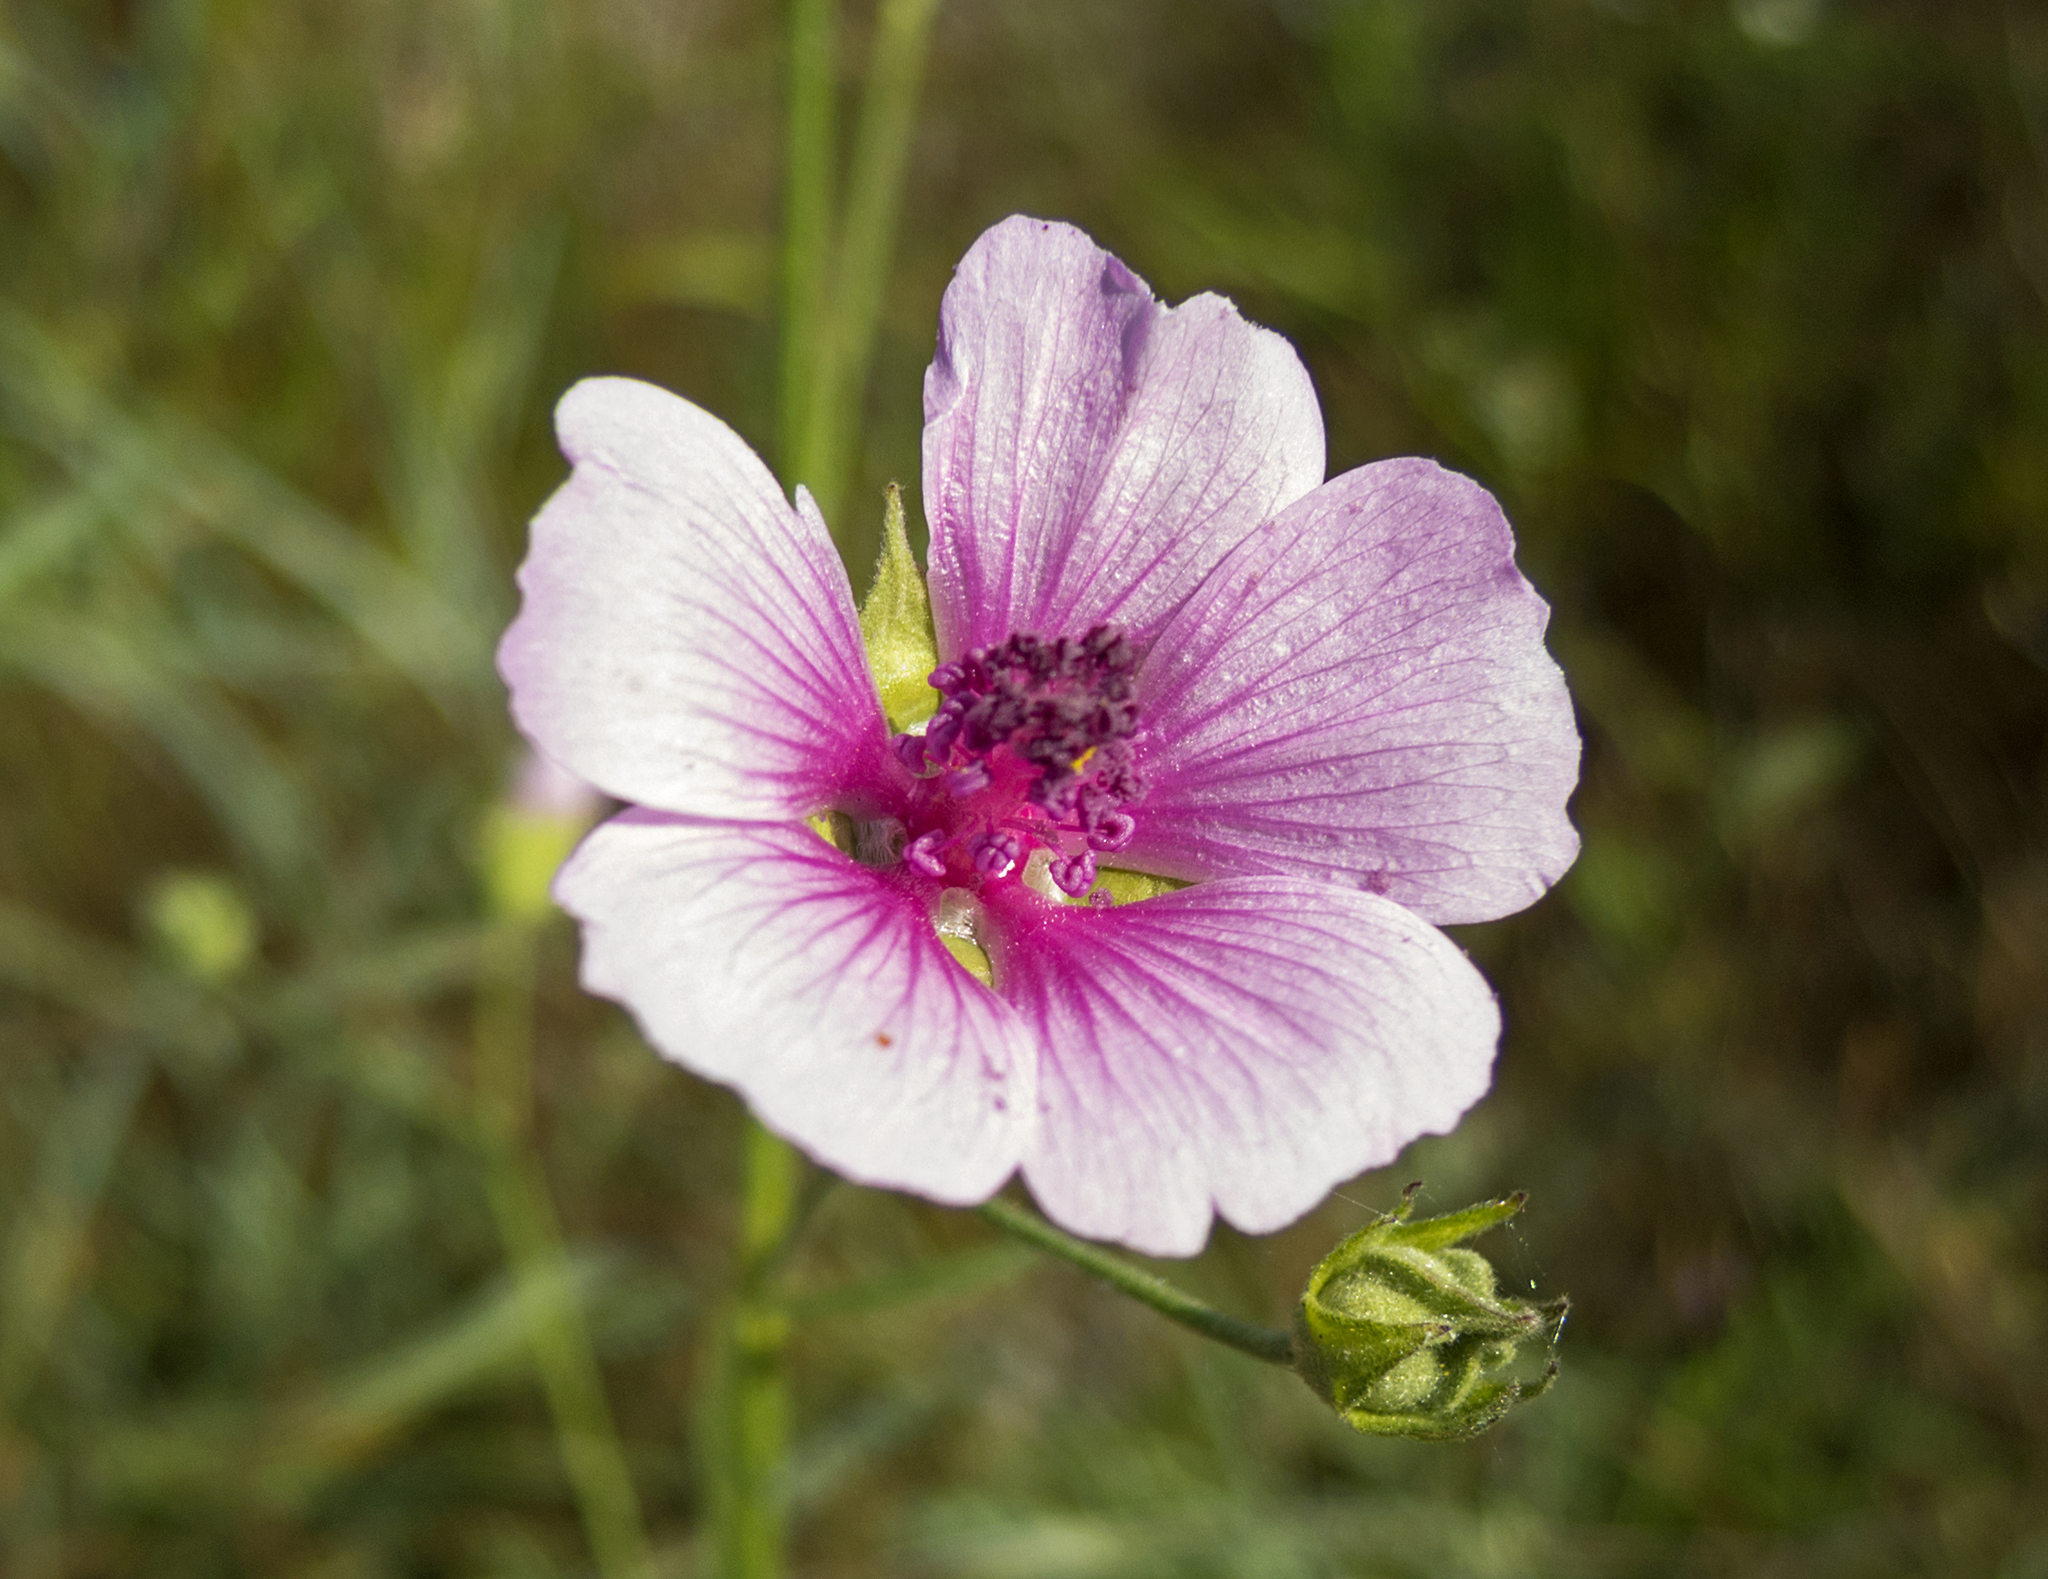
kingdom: Plantae
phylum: Tracheophyta
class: Magnoliopsida
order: Malvales
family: Malvaceae
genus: Althaea
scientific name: Althaea cannabina
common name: Palm-leaf marshmallow
